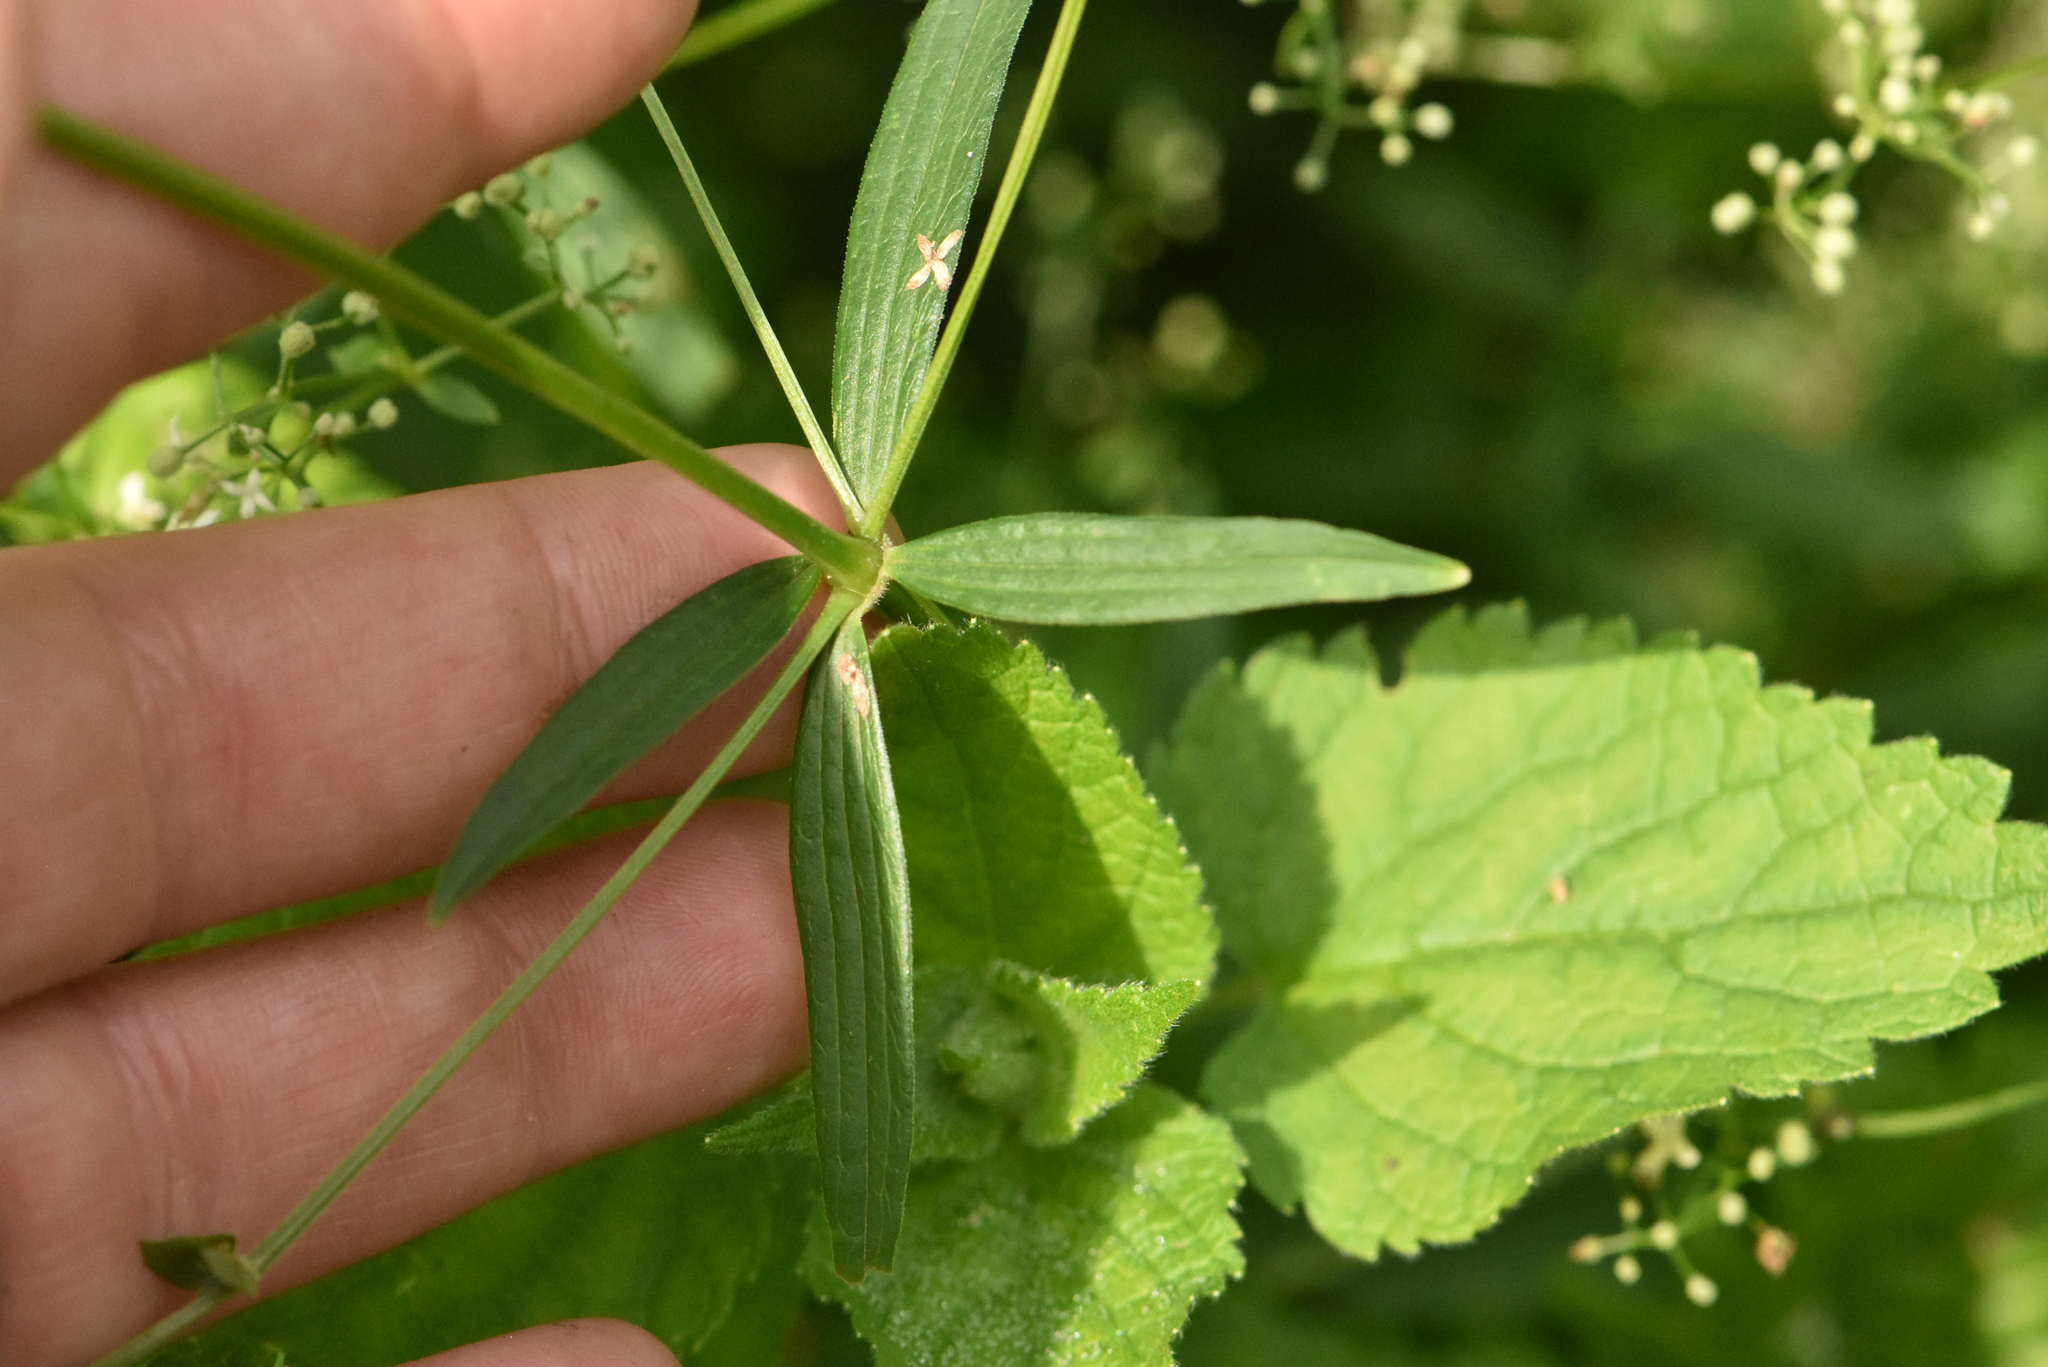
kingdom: Plantae
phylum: Tracheophyta
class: Magnoliopsida
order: Gentianales
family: Rubiaceae
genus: Galium
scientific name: Galium boreale
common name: Northern bedstraw
